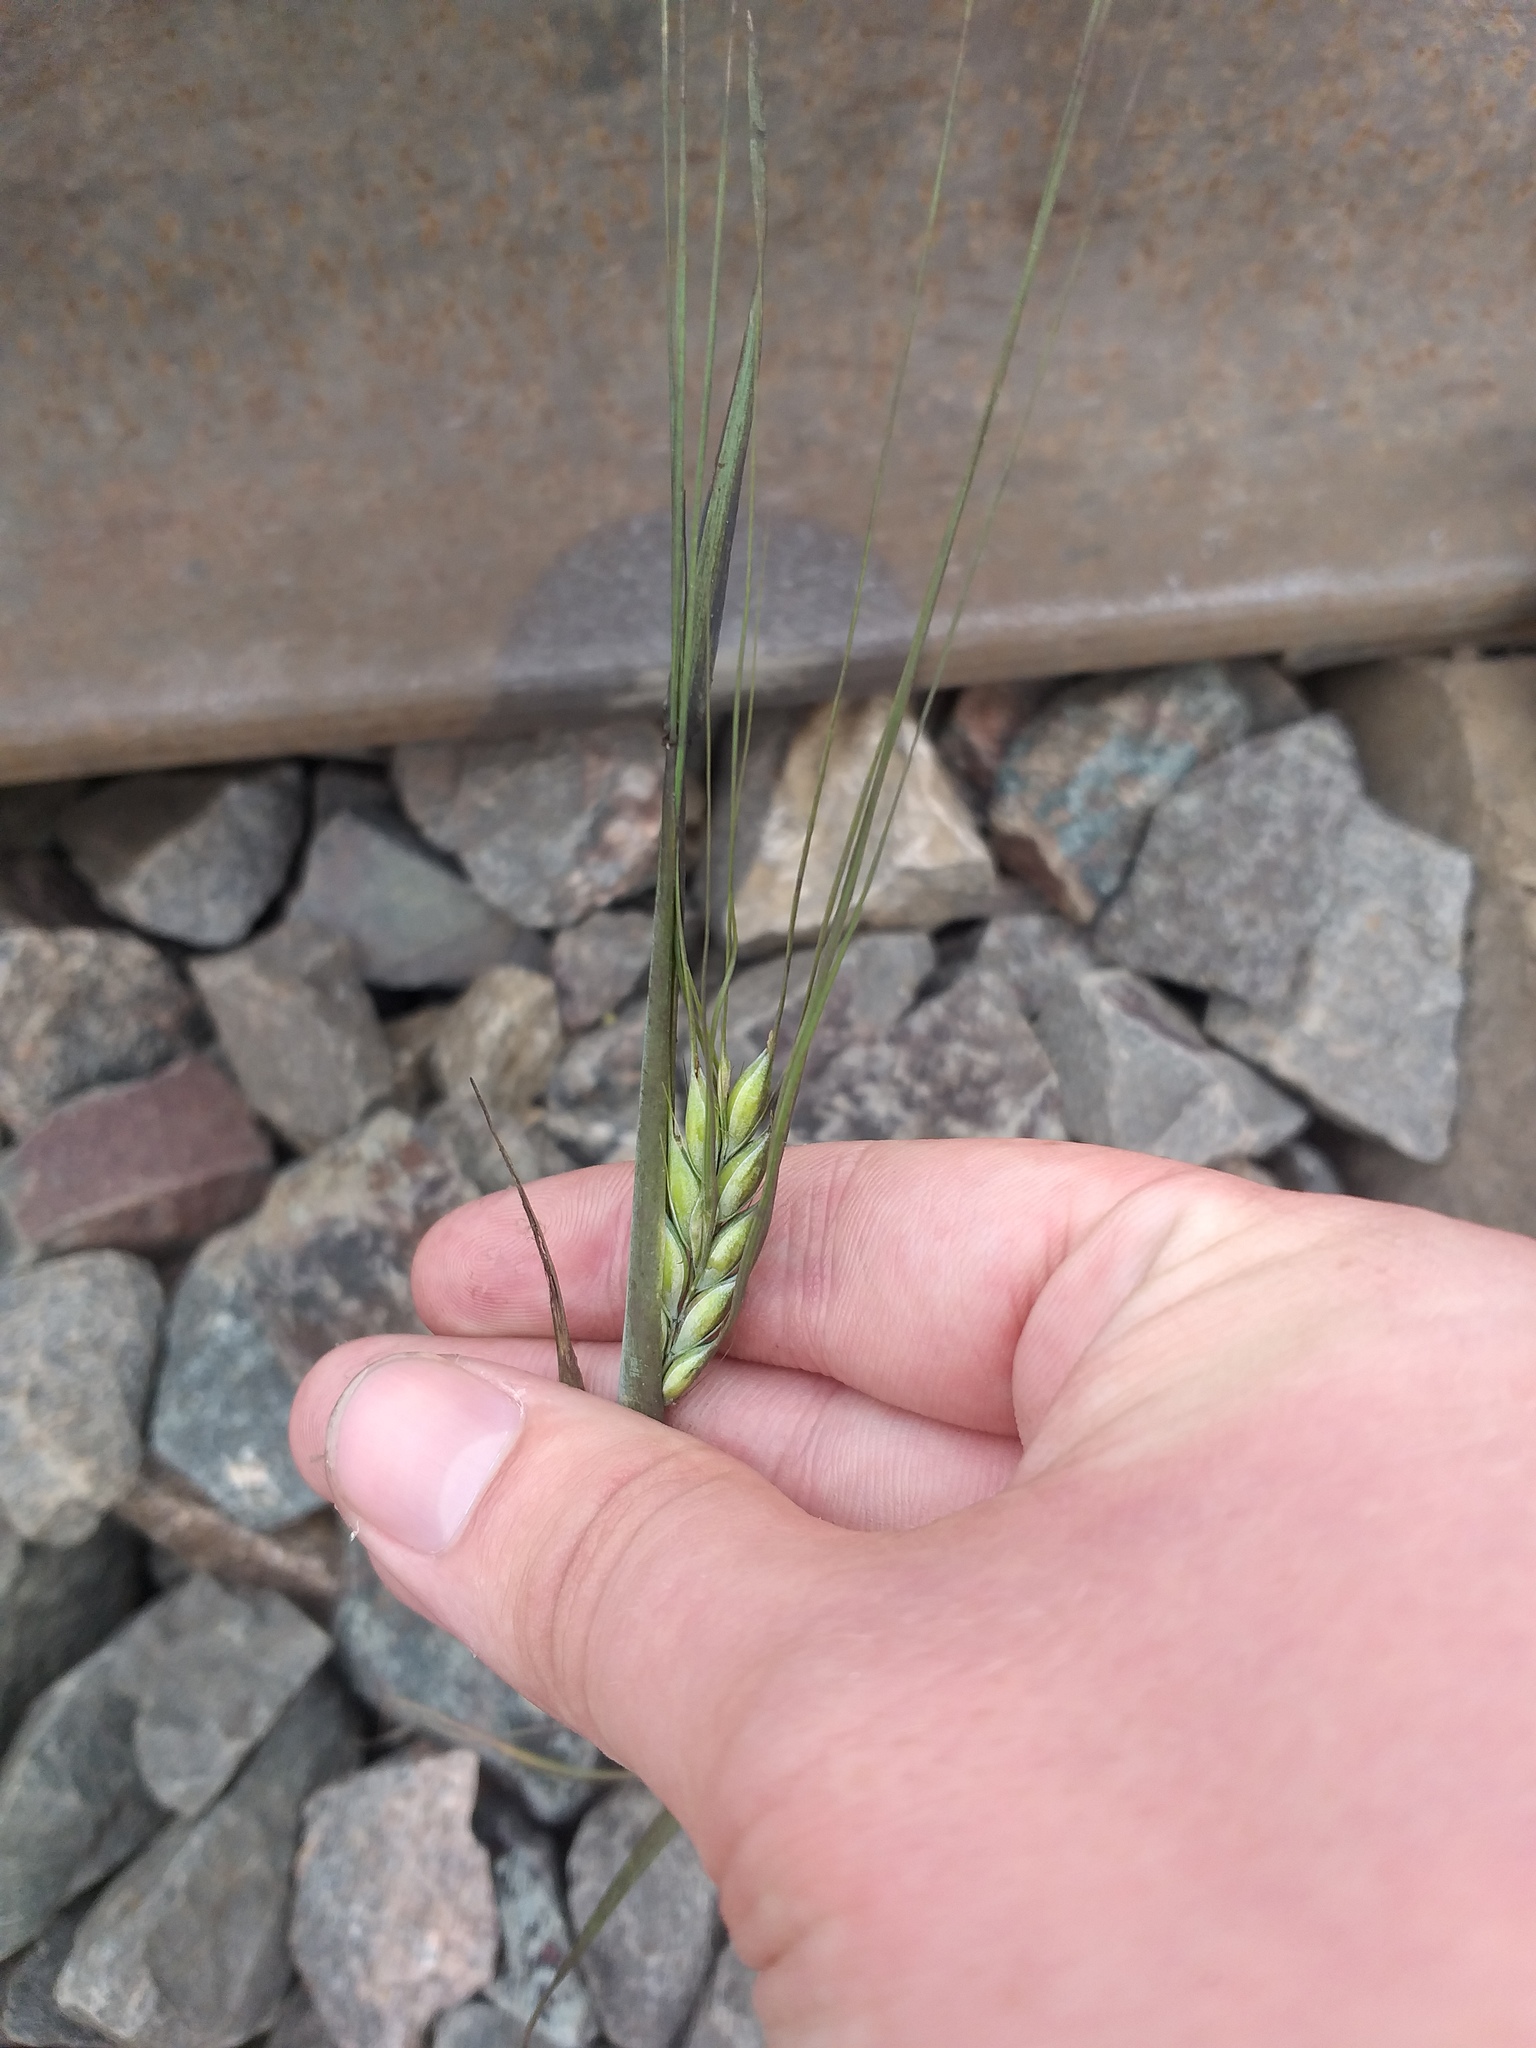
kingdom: Plantae
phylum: Tracheophyta
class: Liliopsida
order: Poales
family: Poaceae
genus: Hordeum
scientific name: Hordeum vulgare
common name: Common barley
